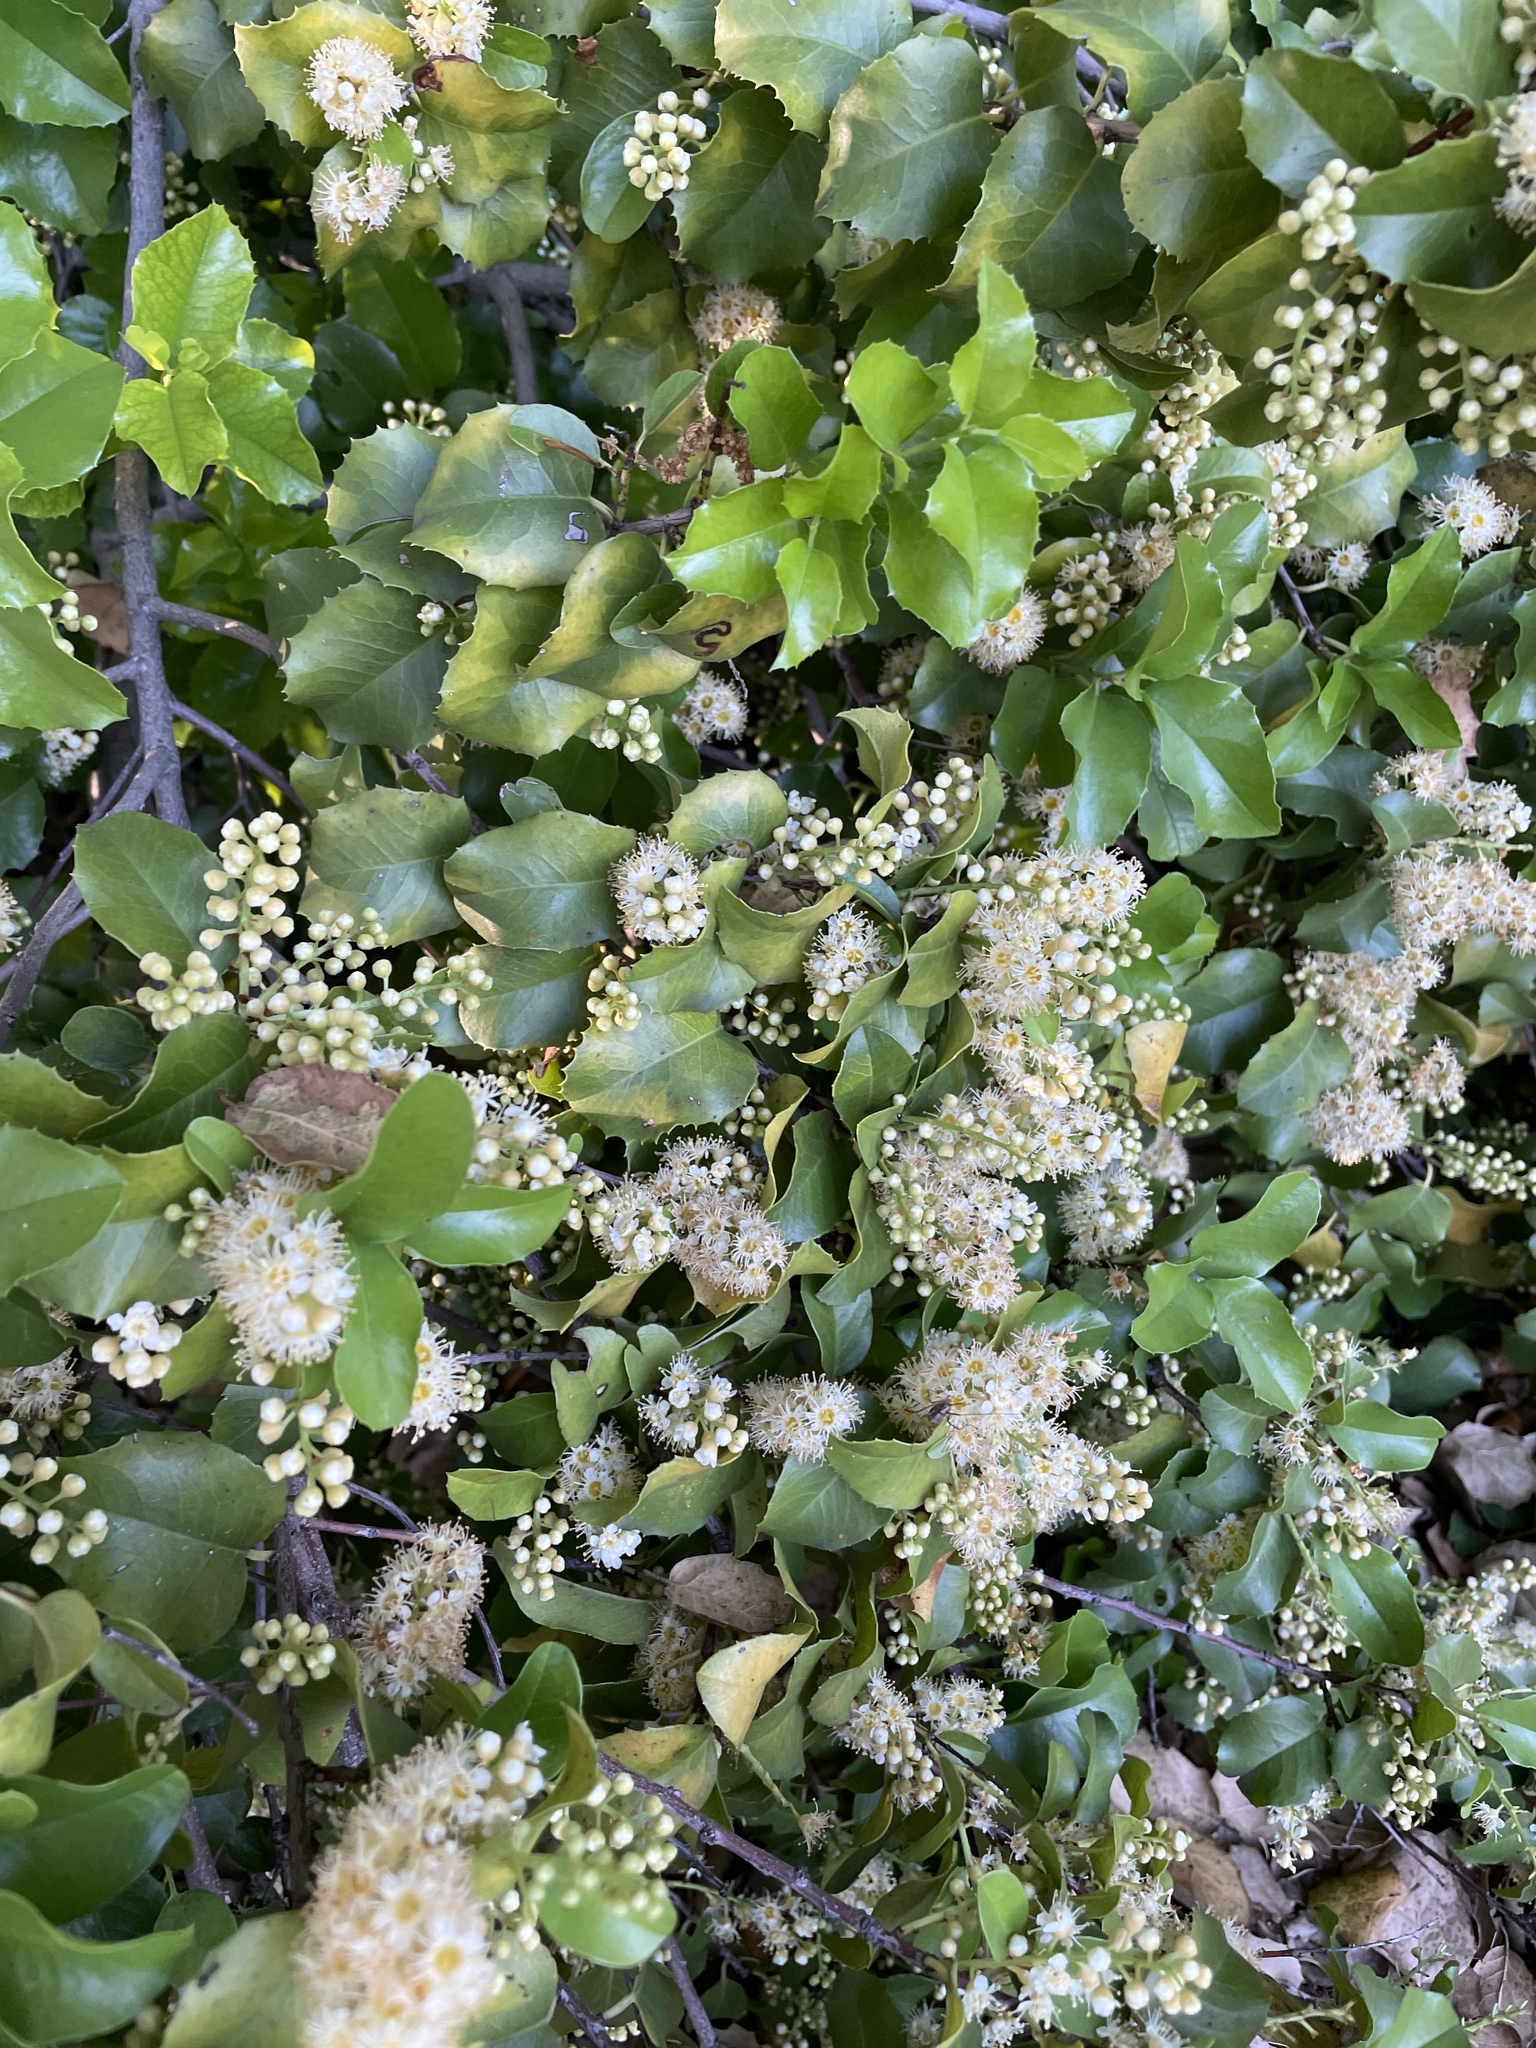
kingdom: Plantae
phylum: Tracheophyta
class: Magnoliopsida
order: Rosales
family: Rosaceae
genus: Prunus
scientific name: Prunus ilicifolia
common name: Hollyleaf cherry
